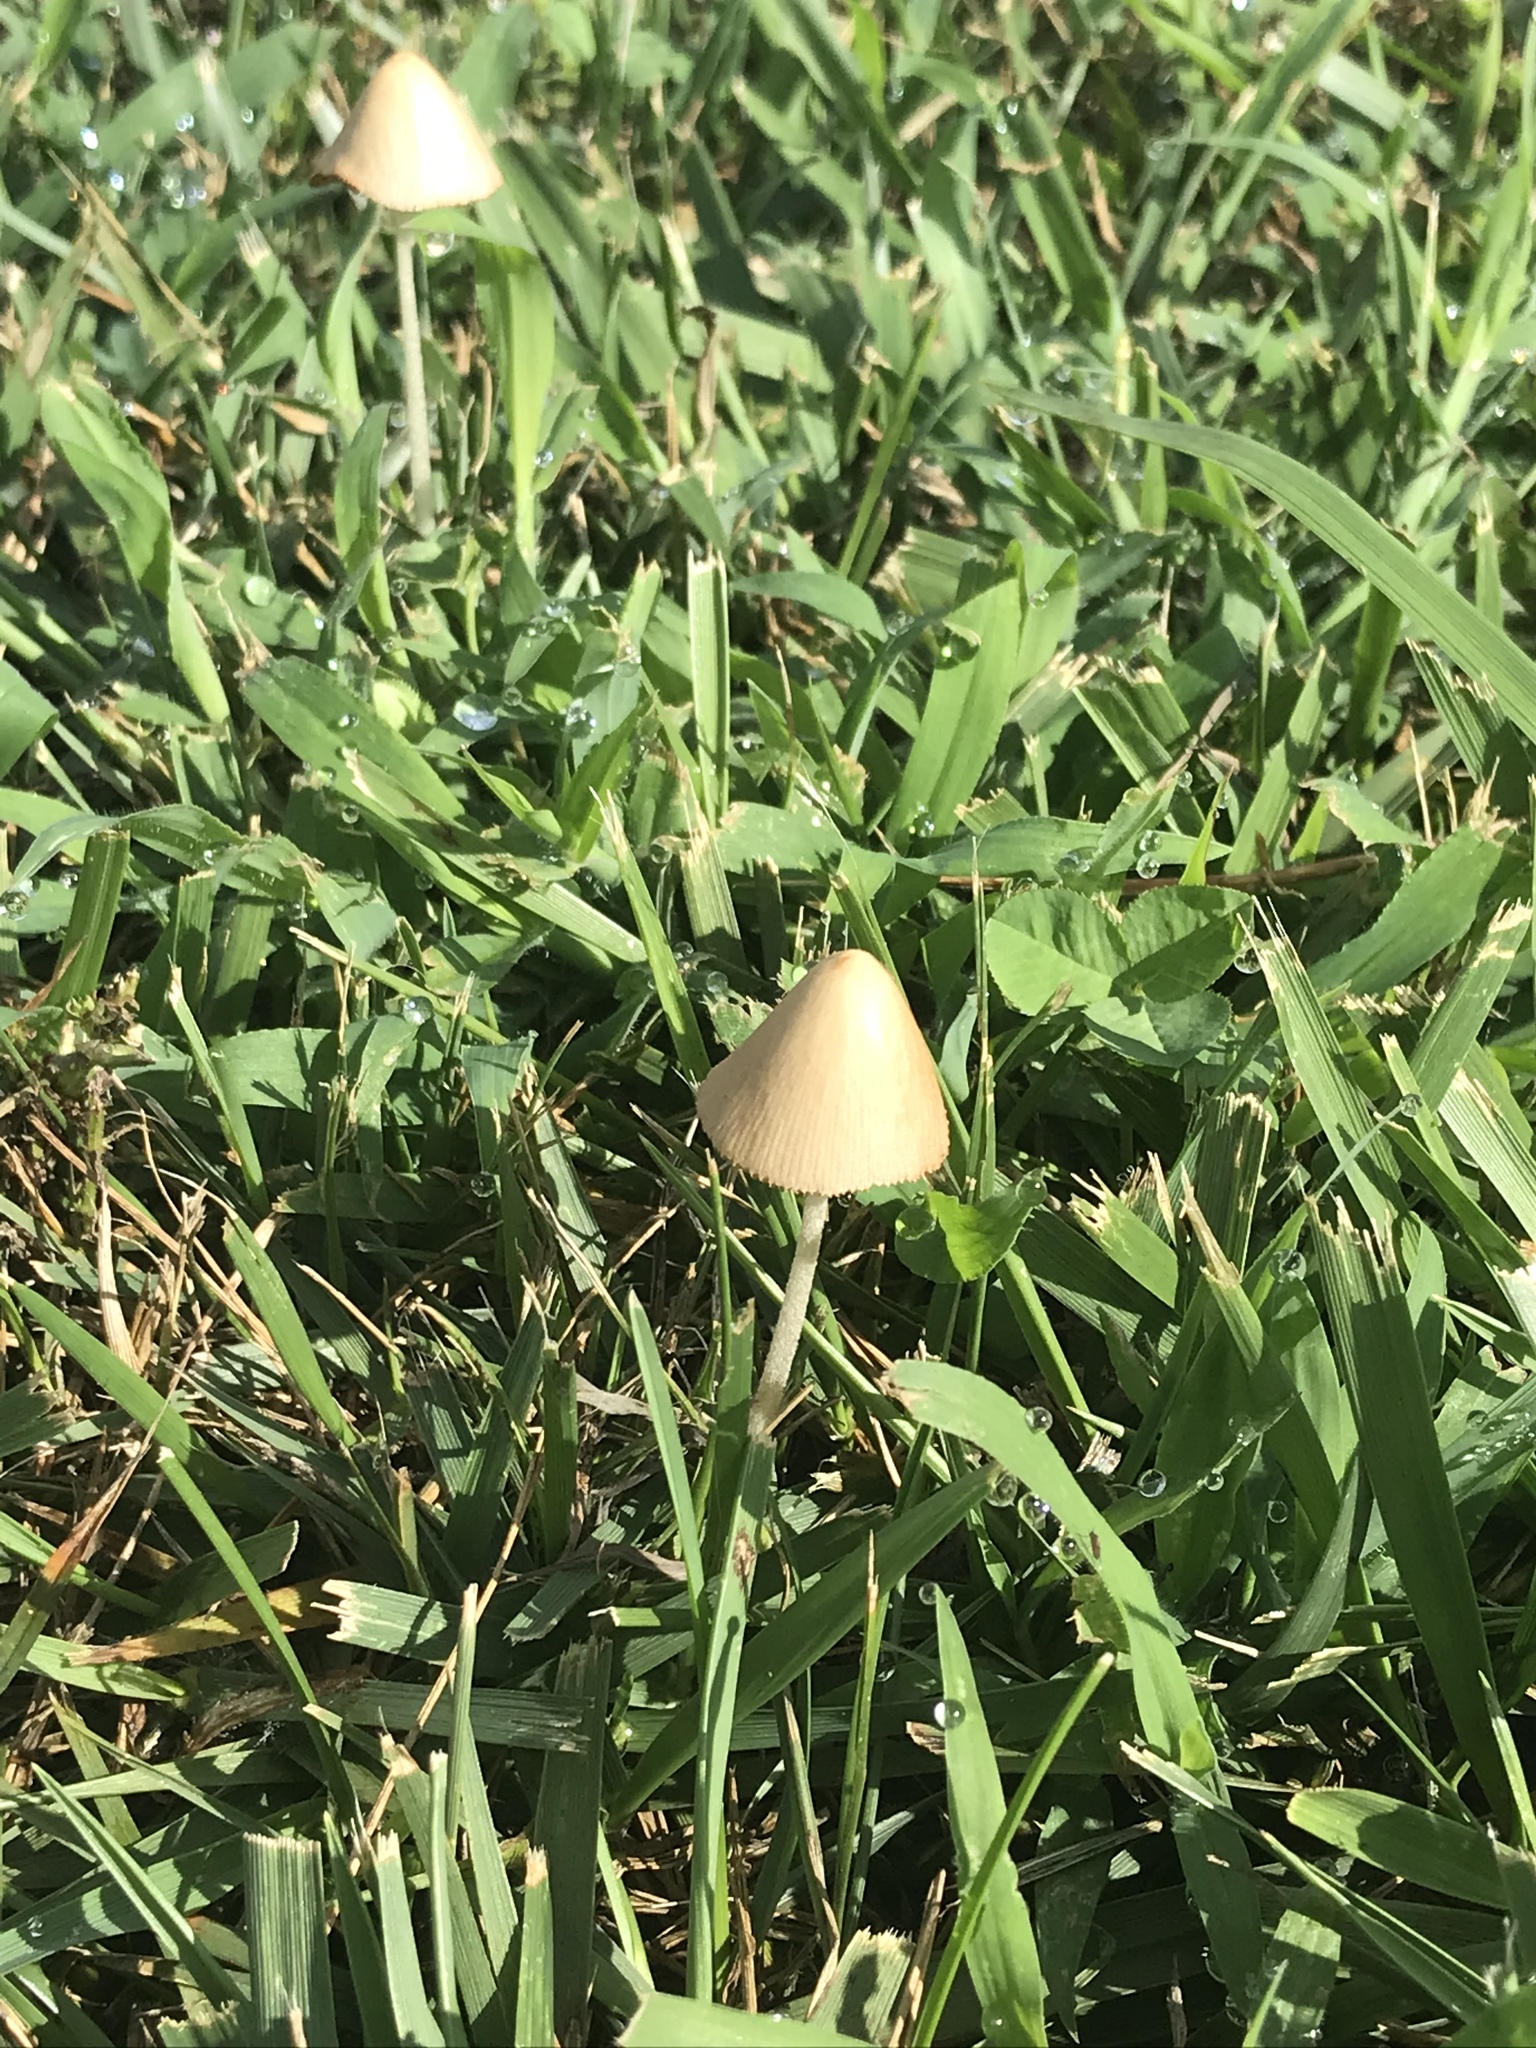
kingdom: Fungi
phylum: Basidiomycota
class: Agaricomycetes
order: Agaricales
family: Bolbitiaceae
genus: Conocybe
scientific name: Conocybe apala
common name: Milky conecap
